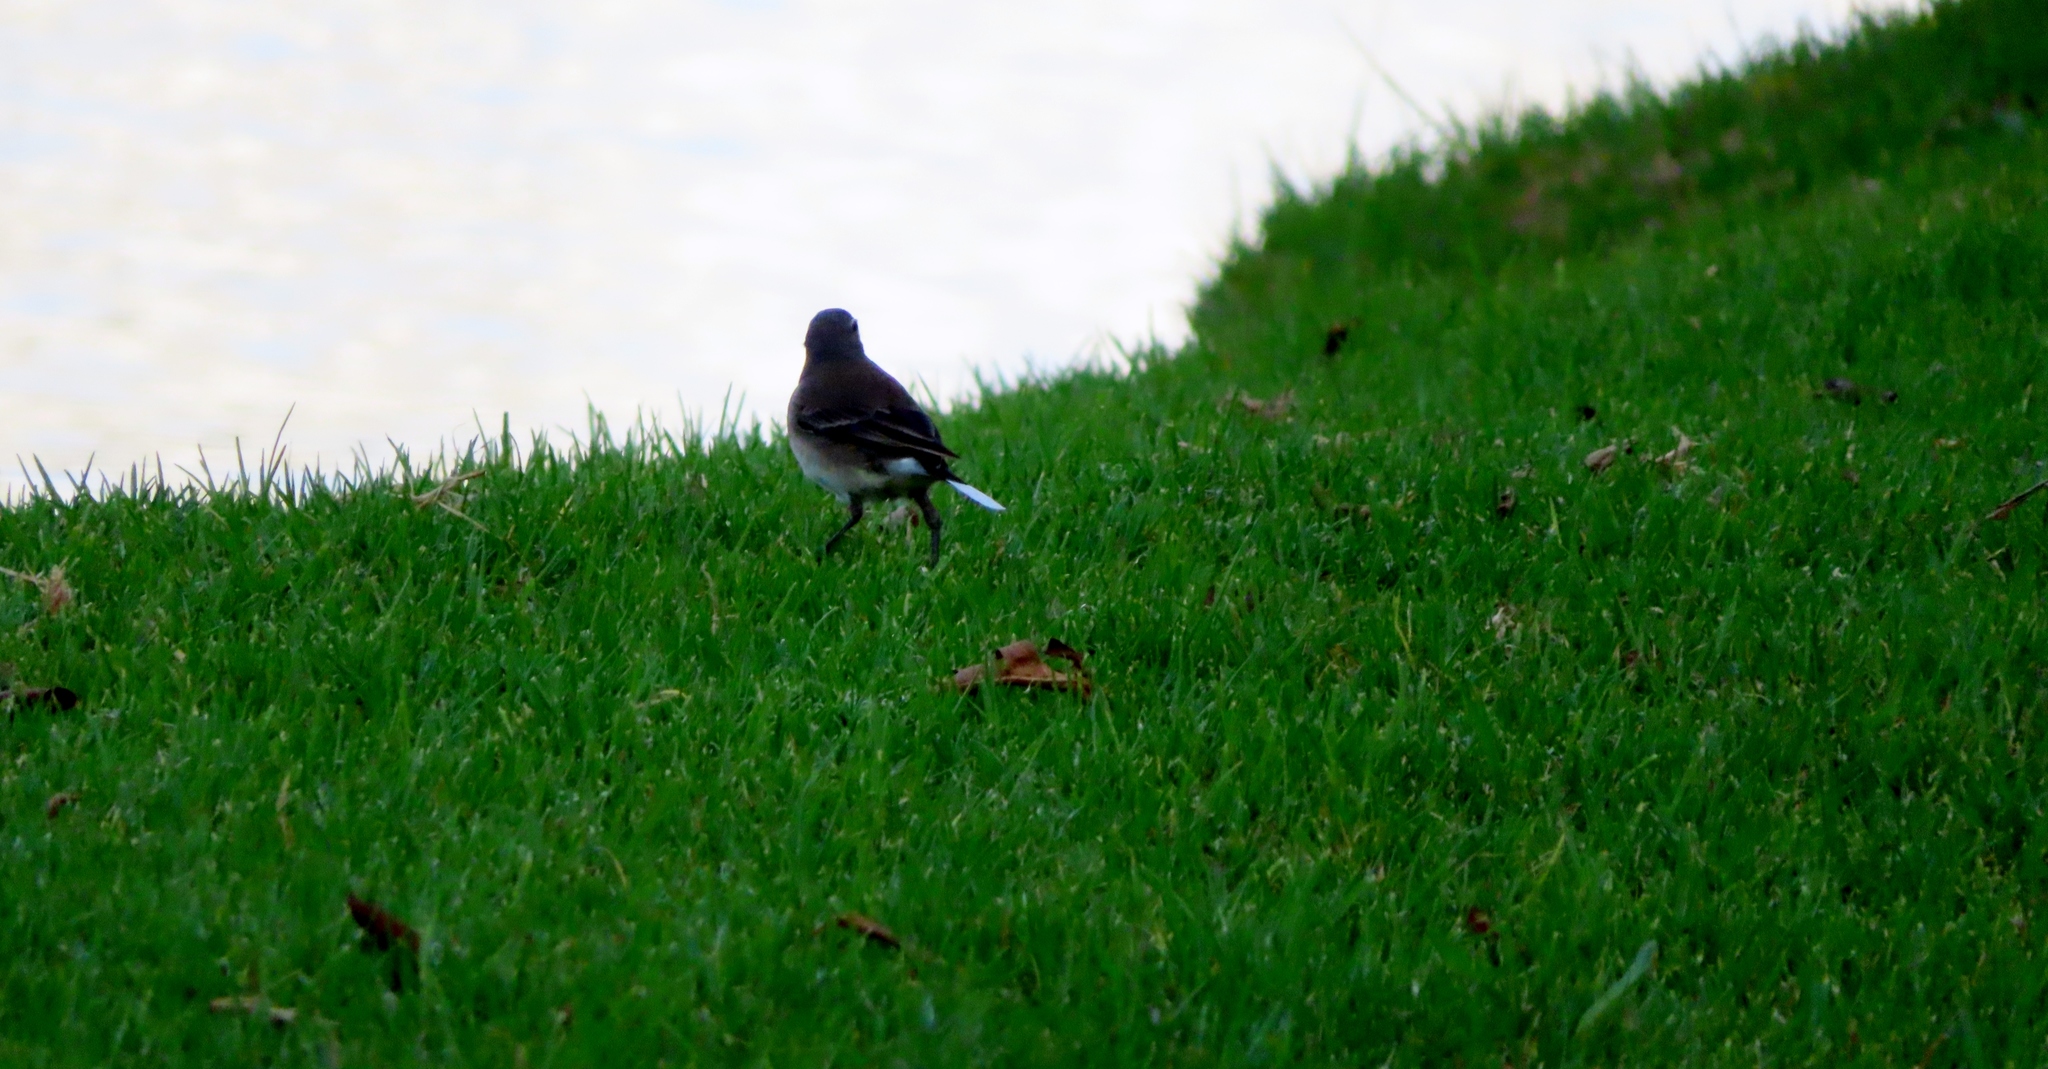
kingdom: Animalia
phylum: Chordata
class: Aves
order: Passeriformes
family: Motacillidae
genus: Motacilla
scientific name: Motacilla capensis
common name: Cape wagtail
